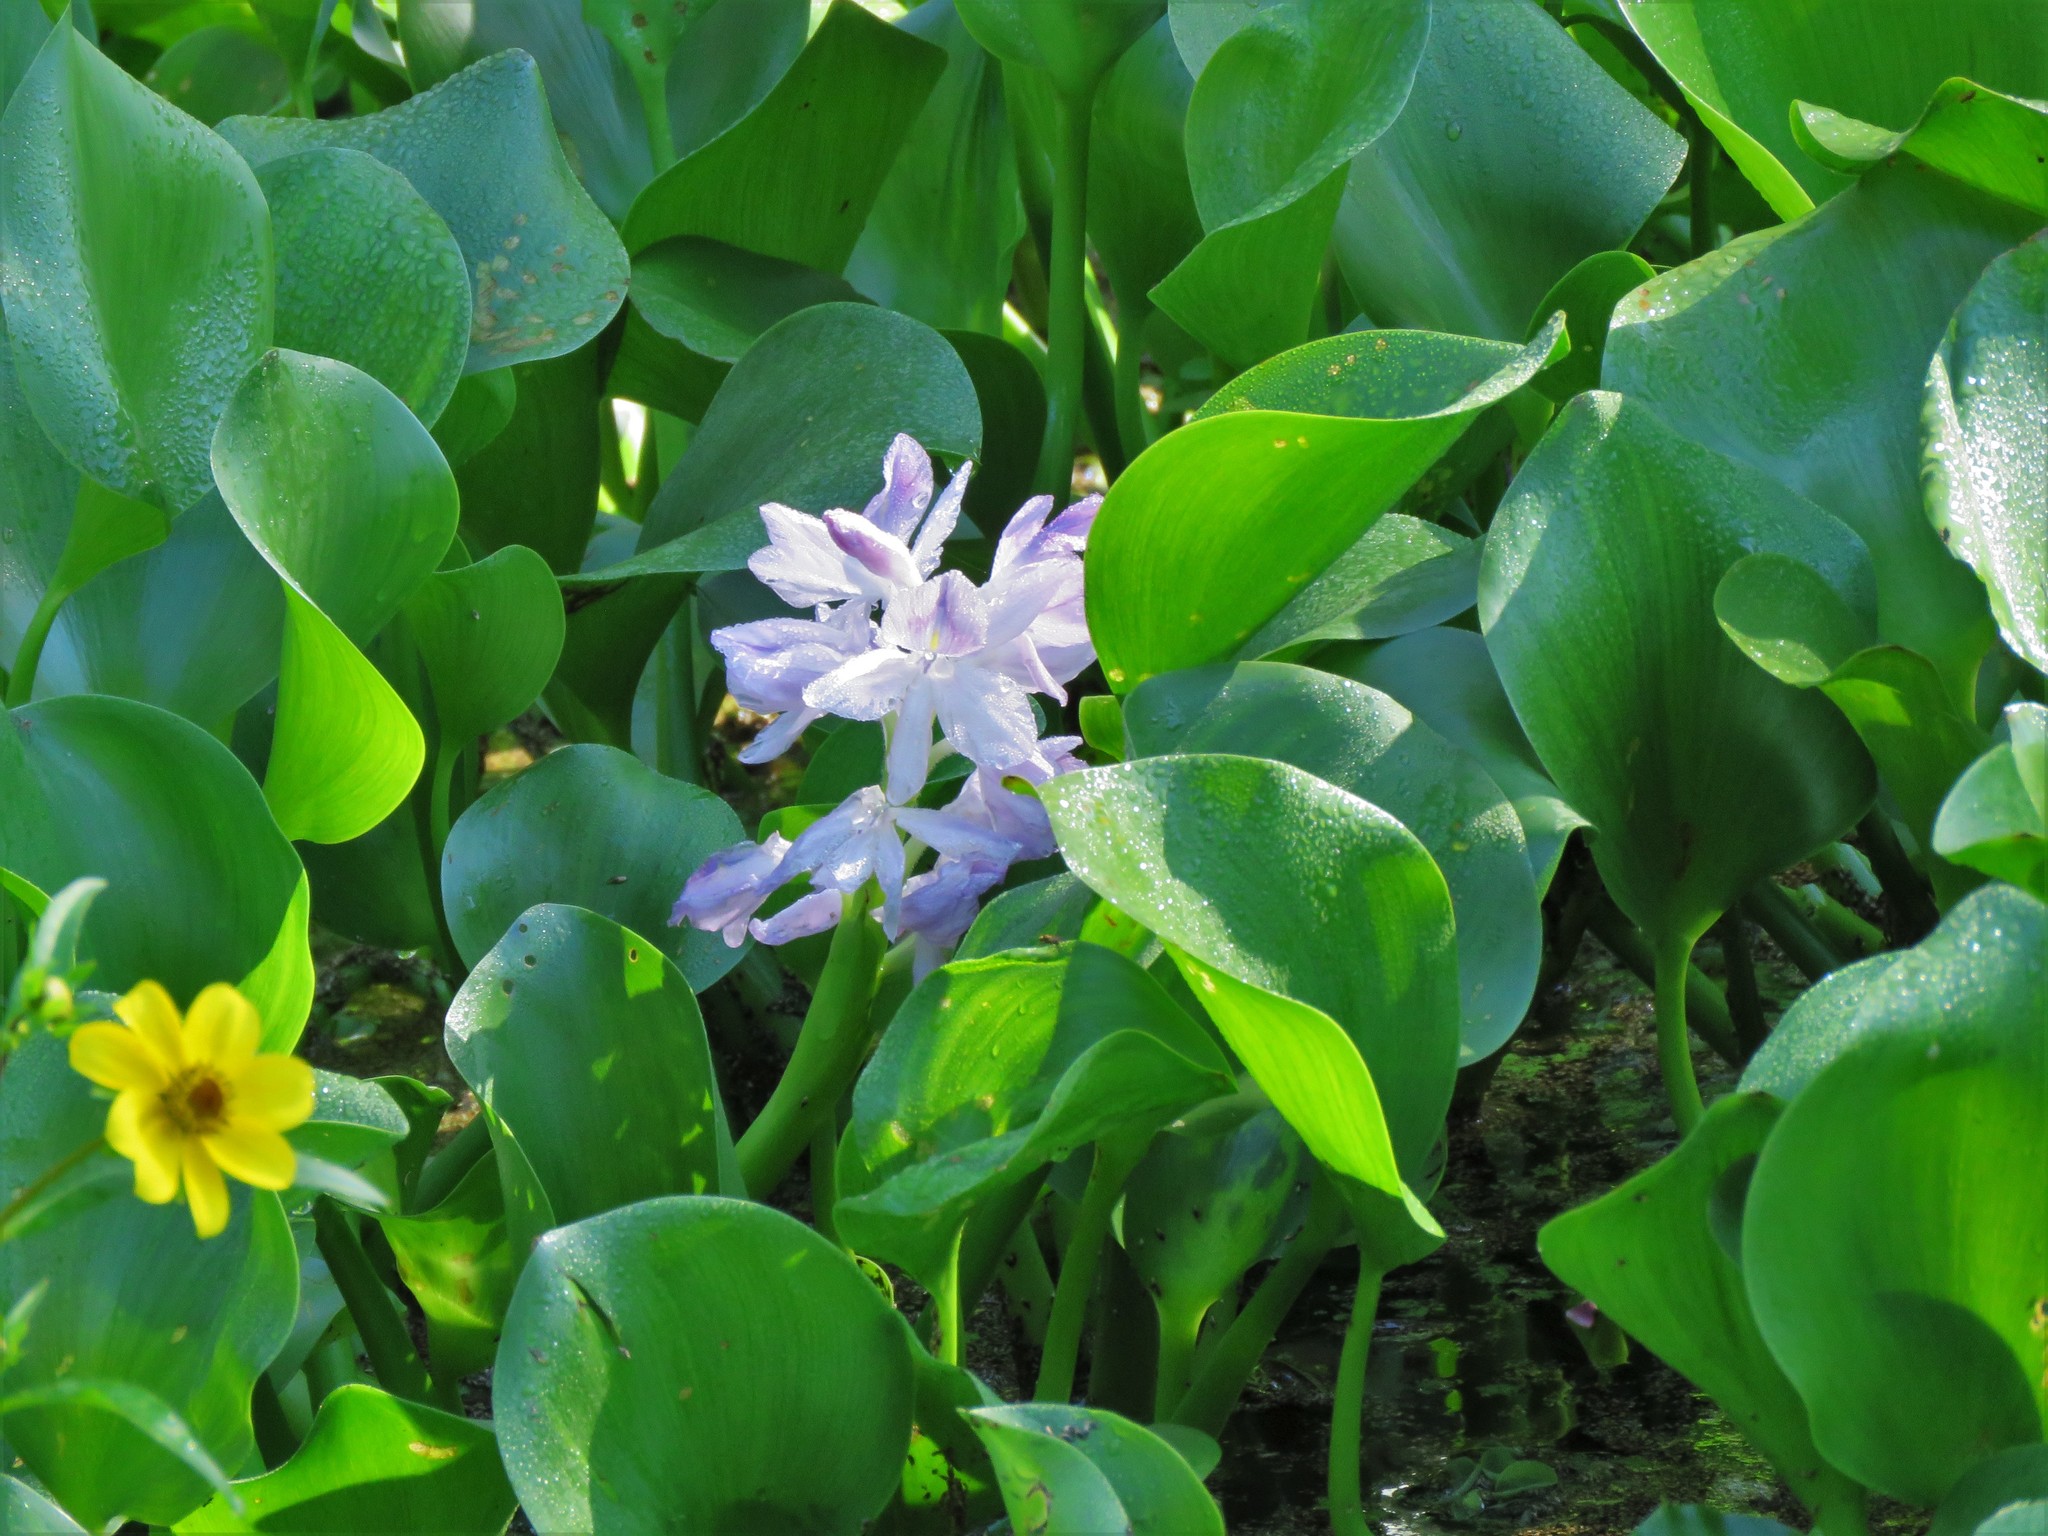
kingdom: Plantae
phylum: Tracheophyta
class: Liliopsida
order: Commelinales
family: Pontederiaceae
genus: Pontederia
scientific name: Pontederia crassipes
